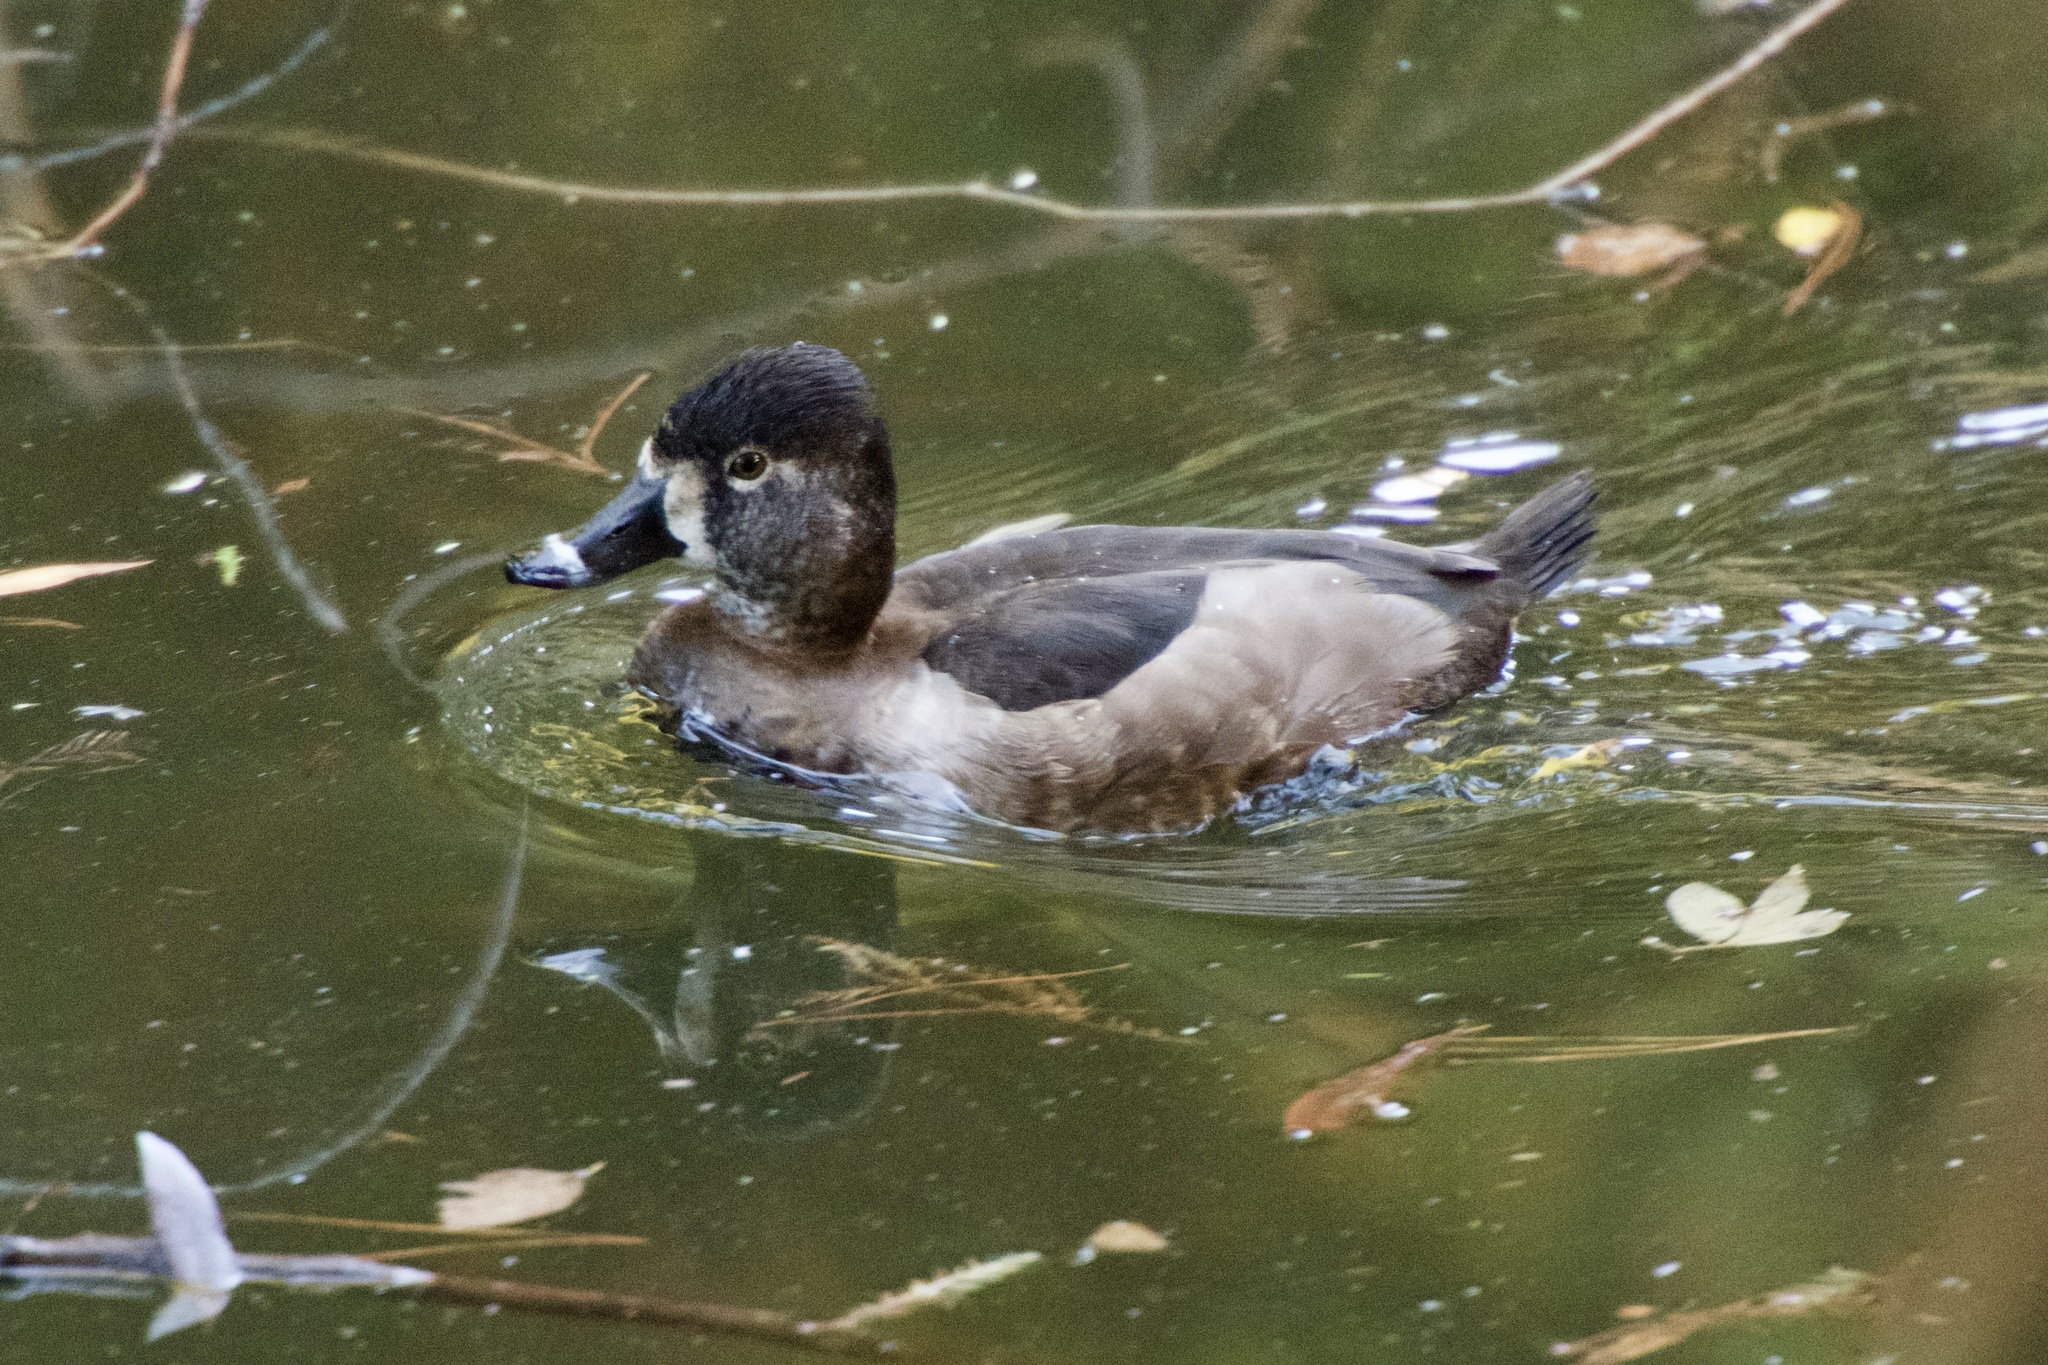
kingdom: Animalia
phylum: Chordata
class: Aves
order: Anseriformes
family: Anatidae
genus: Aythya
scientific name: Aythya collaris
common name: Ring-necked duck
